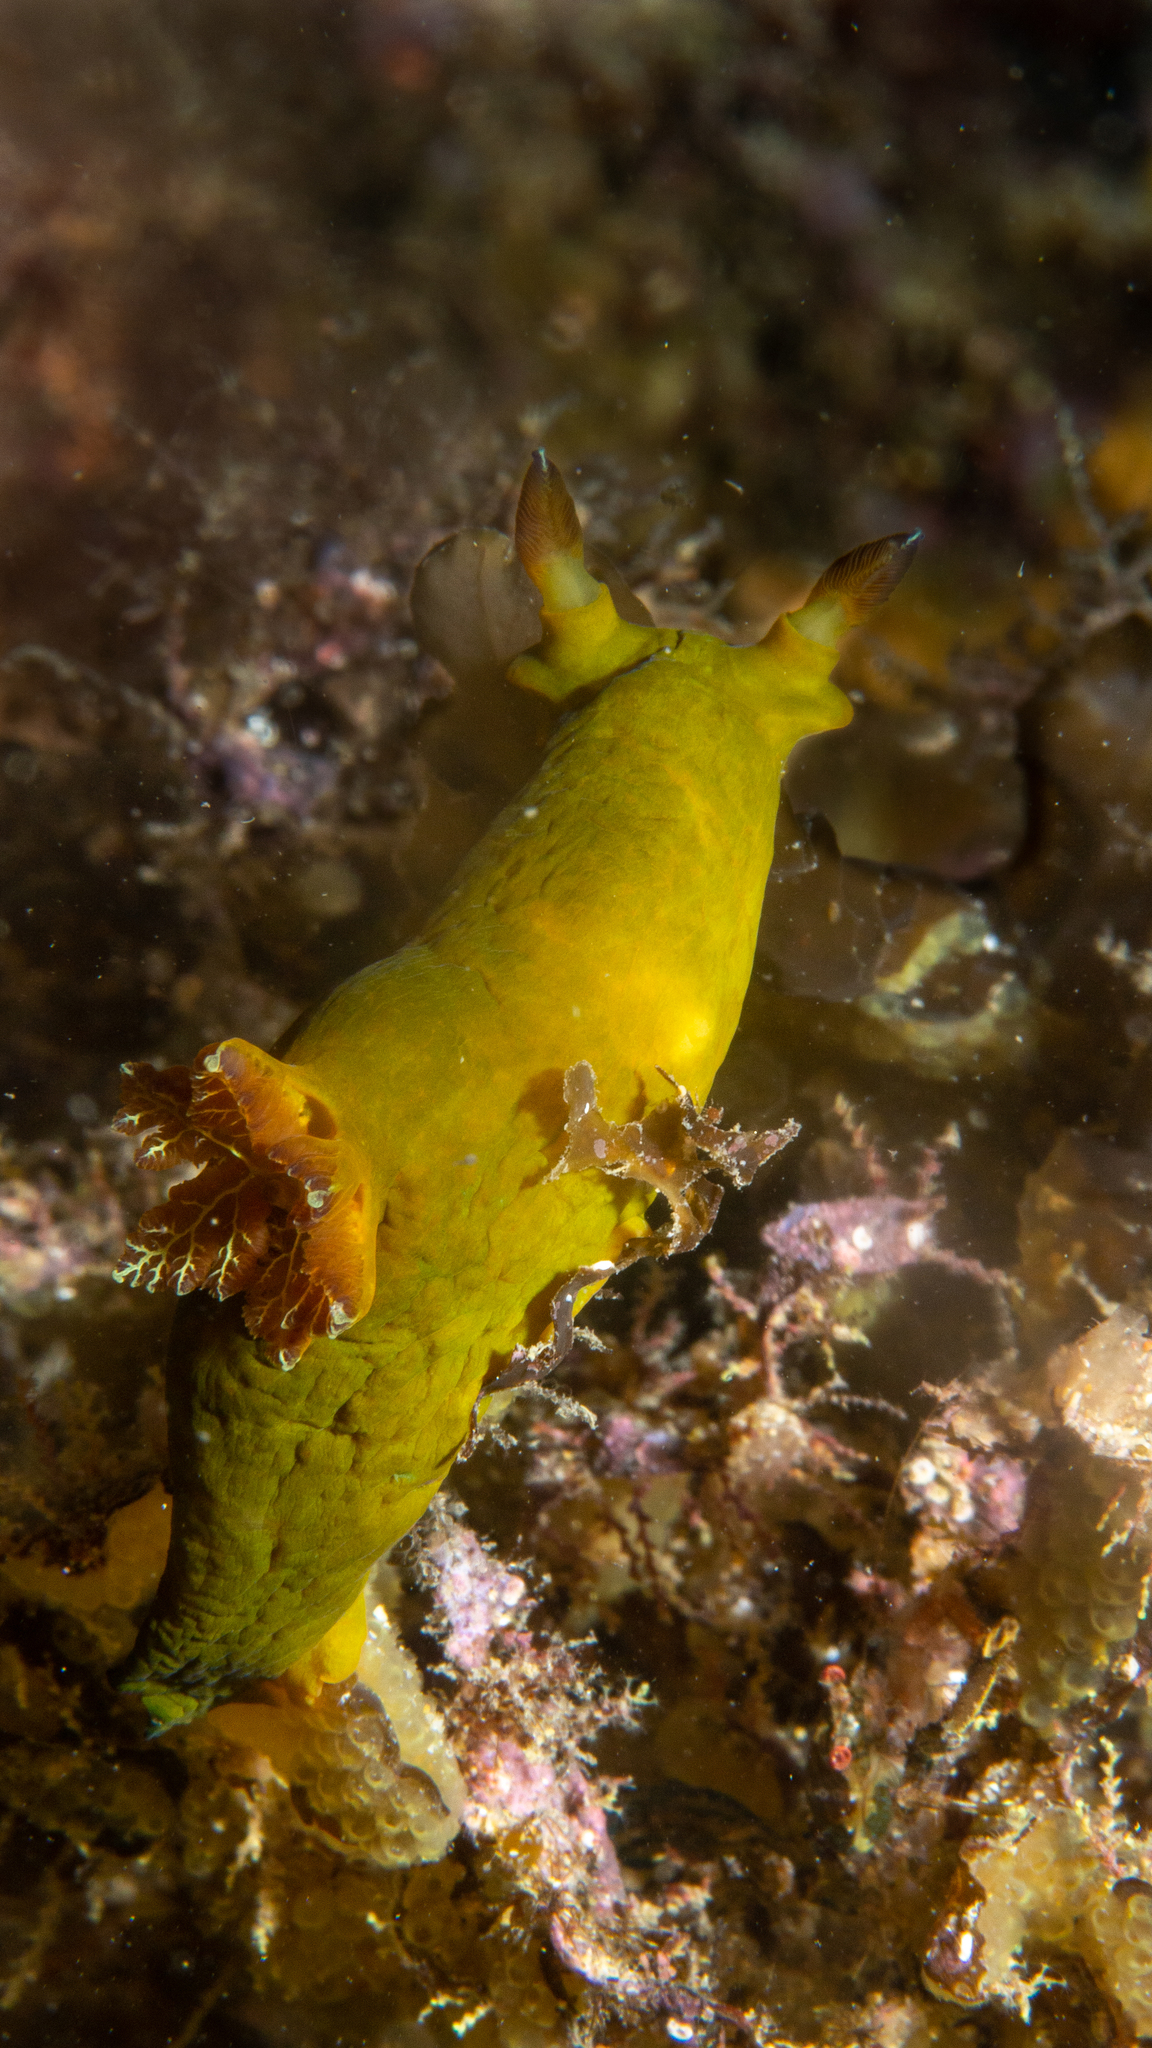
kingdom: Animalia
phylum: Mollusca
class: Gastropoda
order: Nudibranchia
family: Polyceridae
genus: Tambja
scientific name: Tambja dracomus
